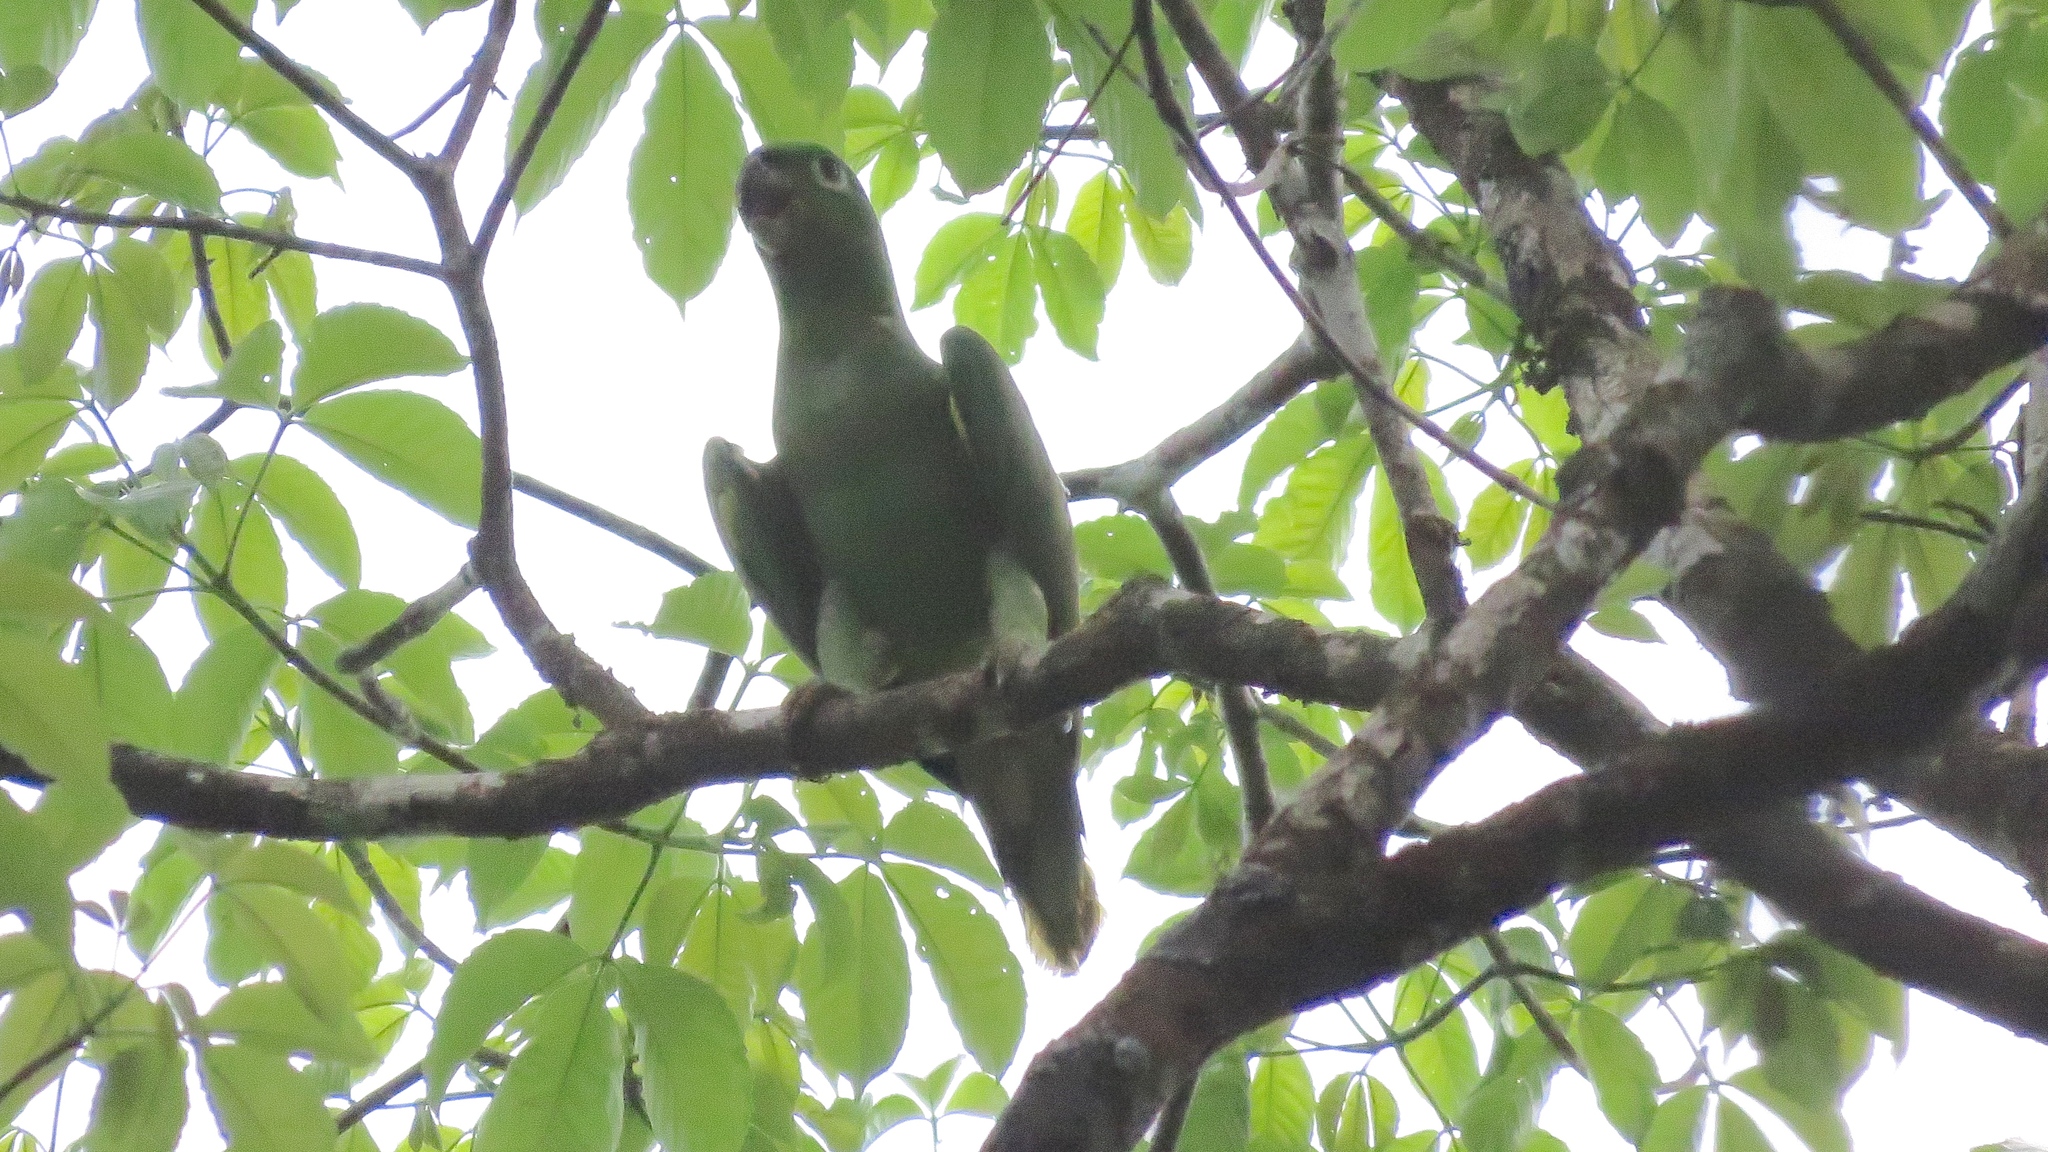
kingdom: Animalia
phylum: Chordata
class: Aves
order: Psittaciformes
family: Psittacidae
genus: Amazona
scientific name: Amazona farinosa
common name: Mealy parrot
